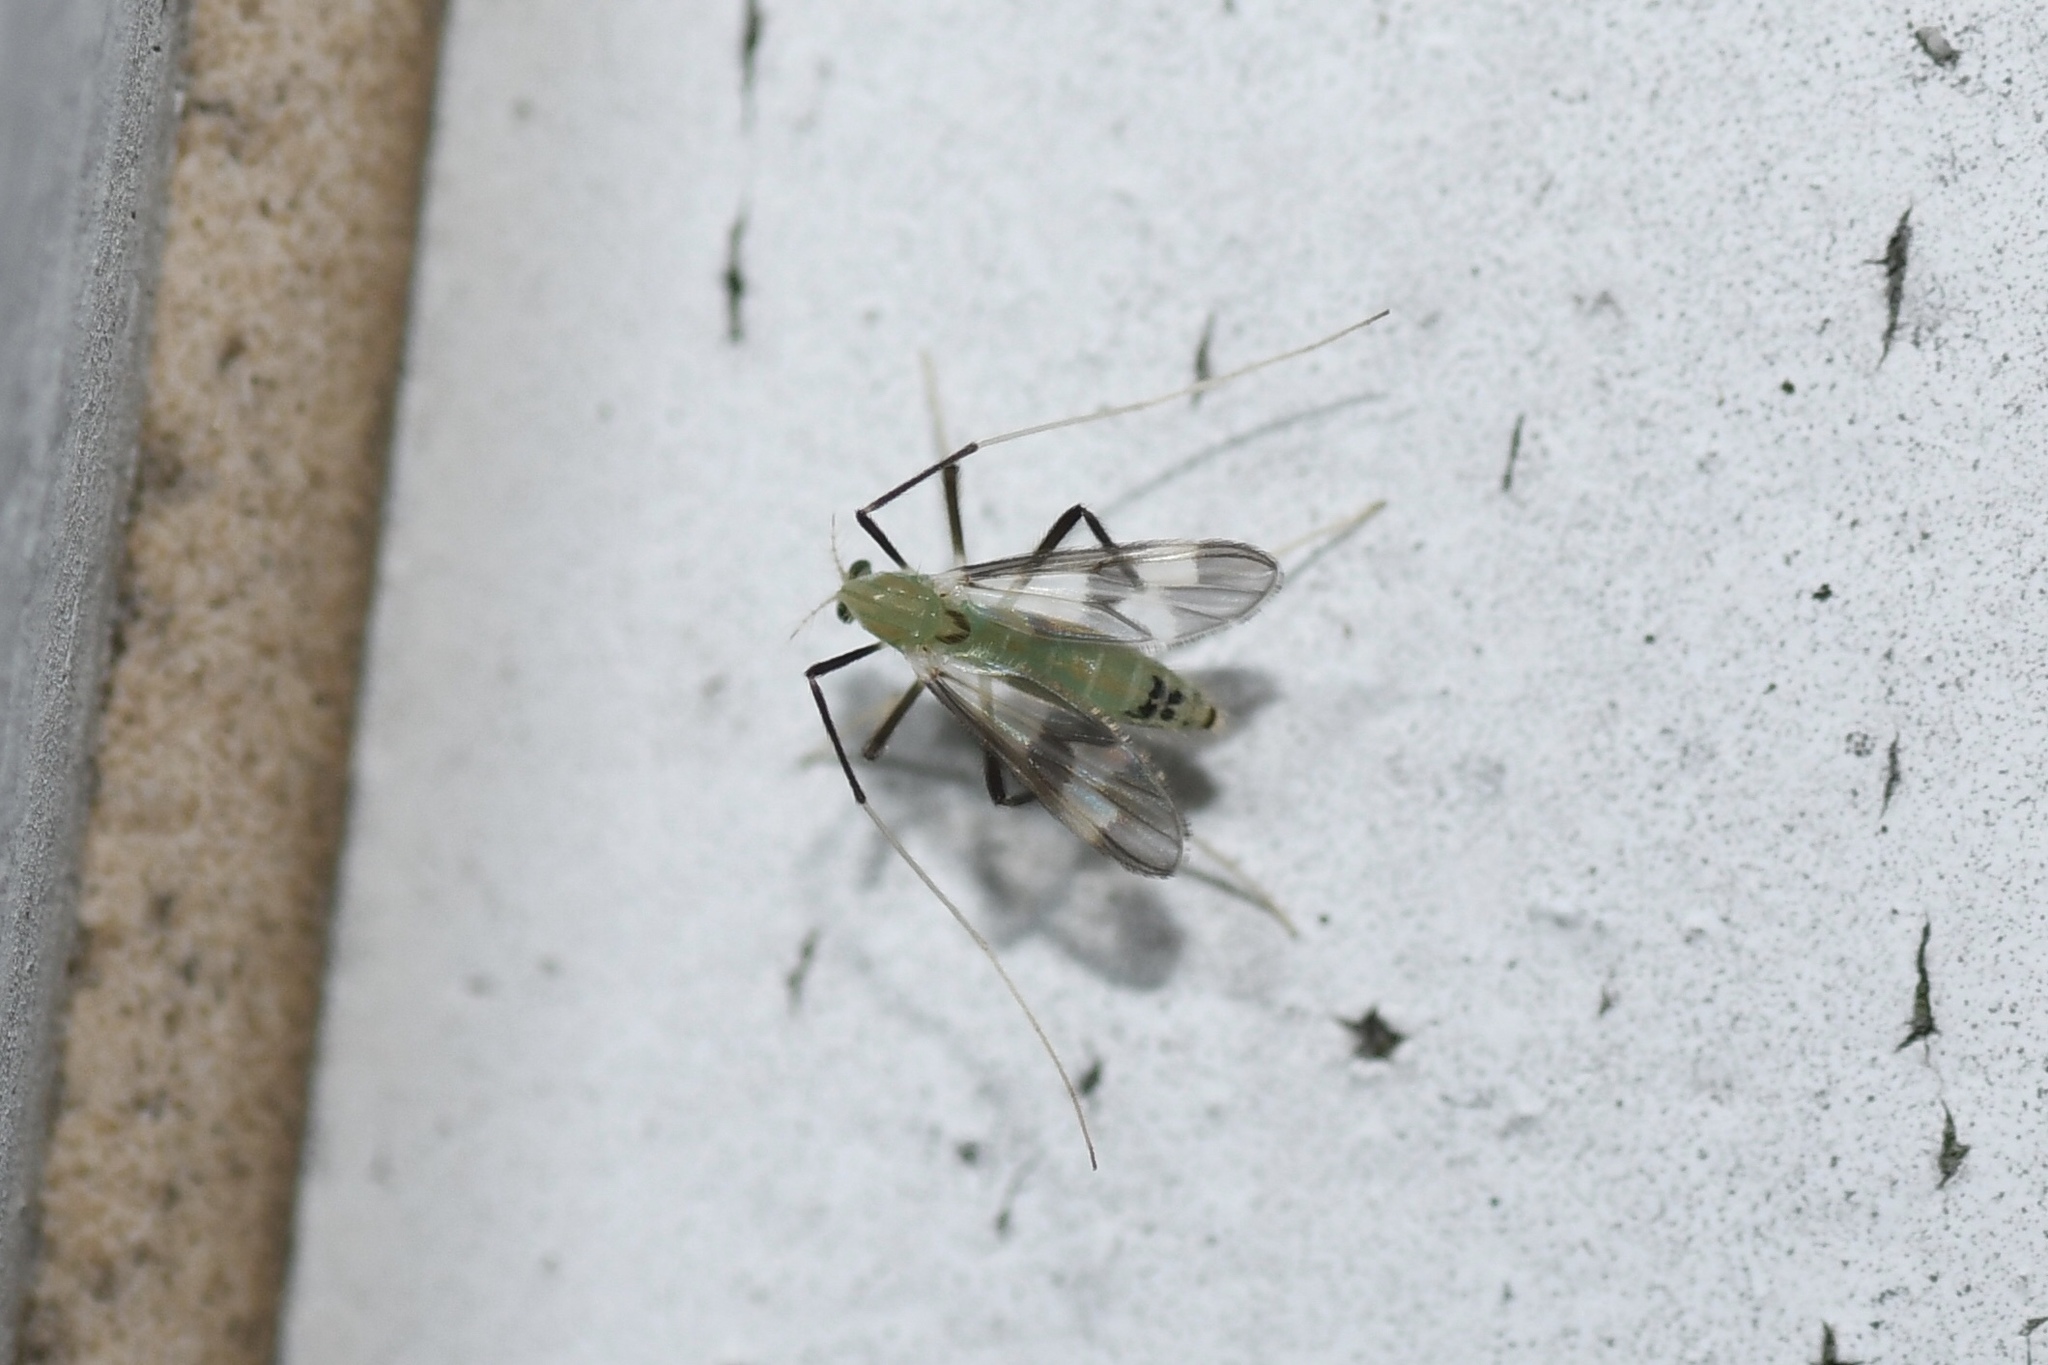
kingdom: Animalia
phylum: Arthropoda
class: Insecta
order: Diptera
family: Chironomidae
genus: Stenochironomus
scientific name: Stenochironomus hilaris
